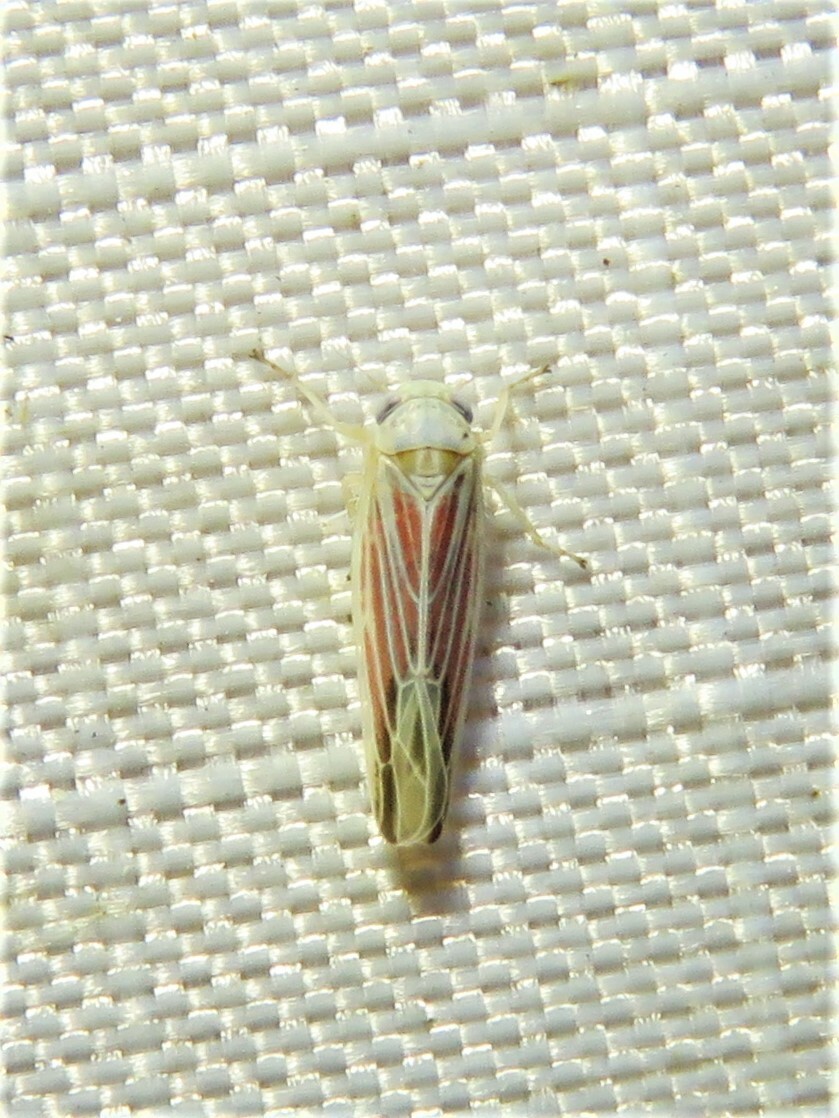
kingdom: Animalia
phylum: Arthropoda
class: Insecta
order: Hemiptera
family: Cicadellidae
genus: Balclutha
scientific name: Balclutha rubrostriata
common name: Red-streaked leafhopper
